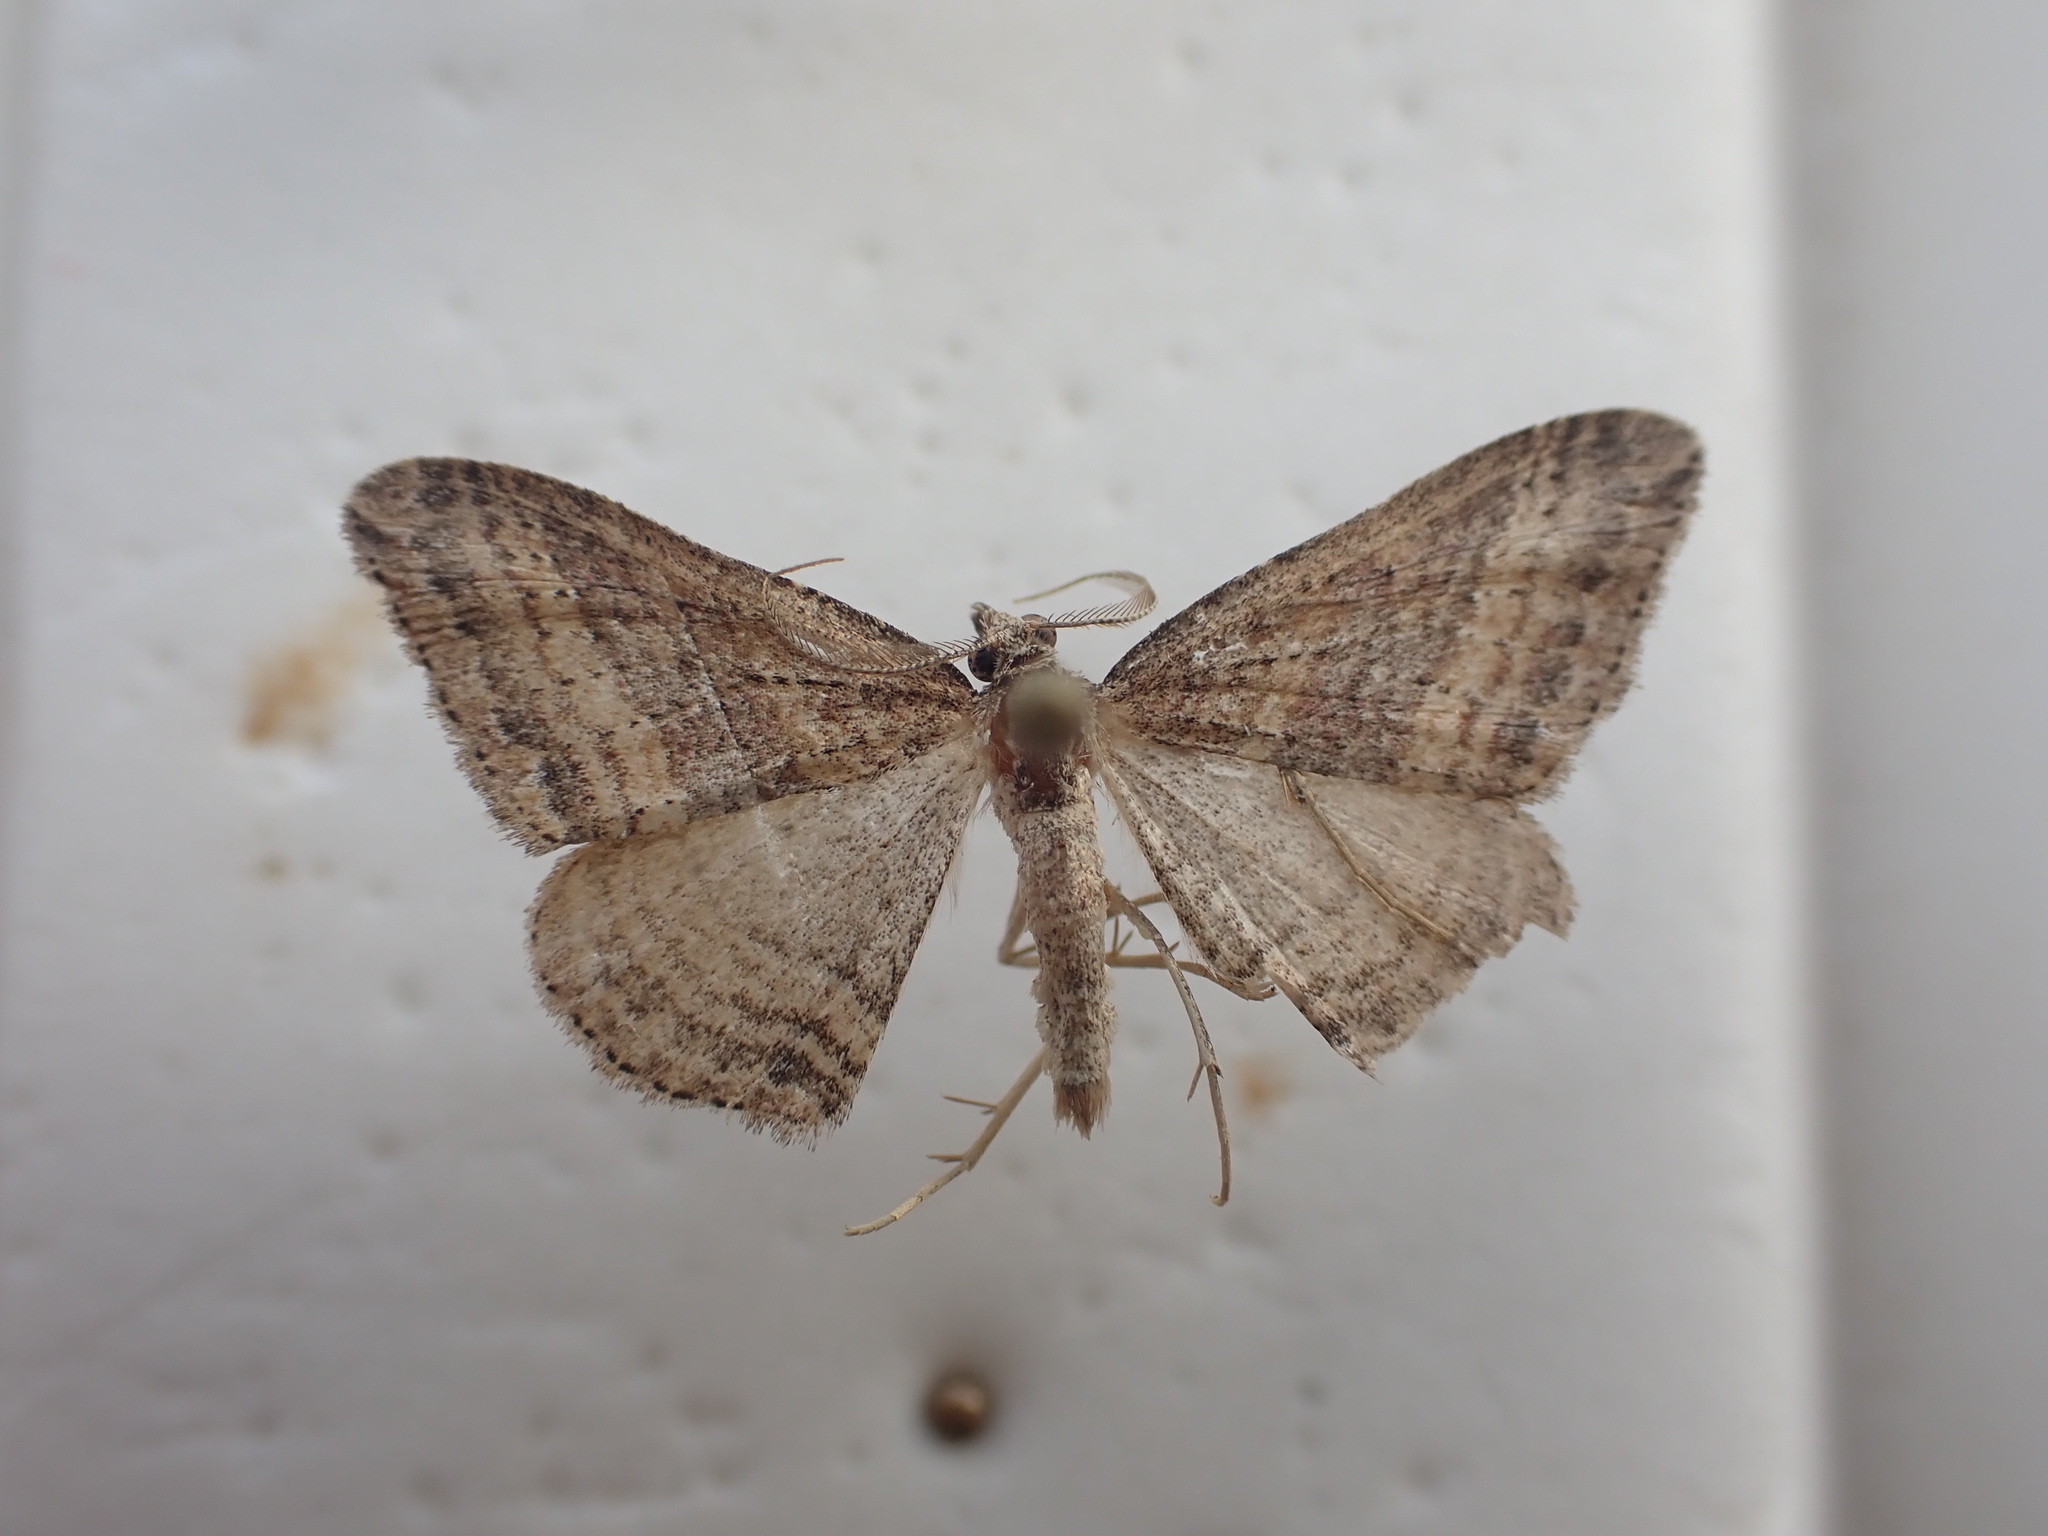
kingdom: Animalia
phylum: Arthropoda
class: Insecta
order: Lepidoptera
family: Geometridae
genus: Epyaxa
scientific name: Epyaxa venipunctata
